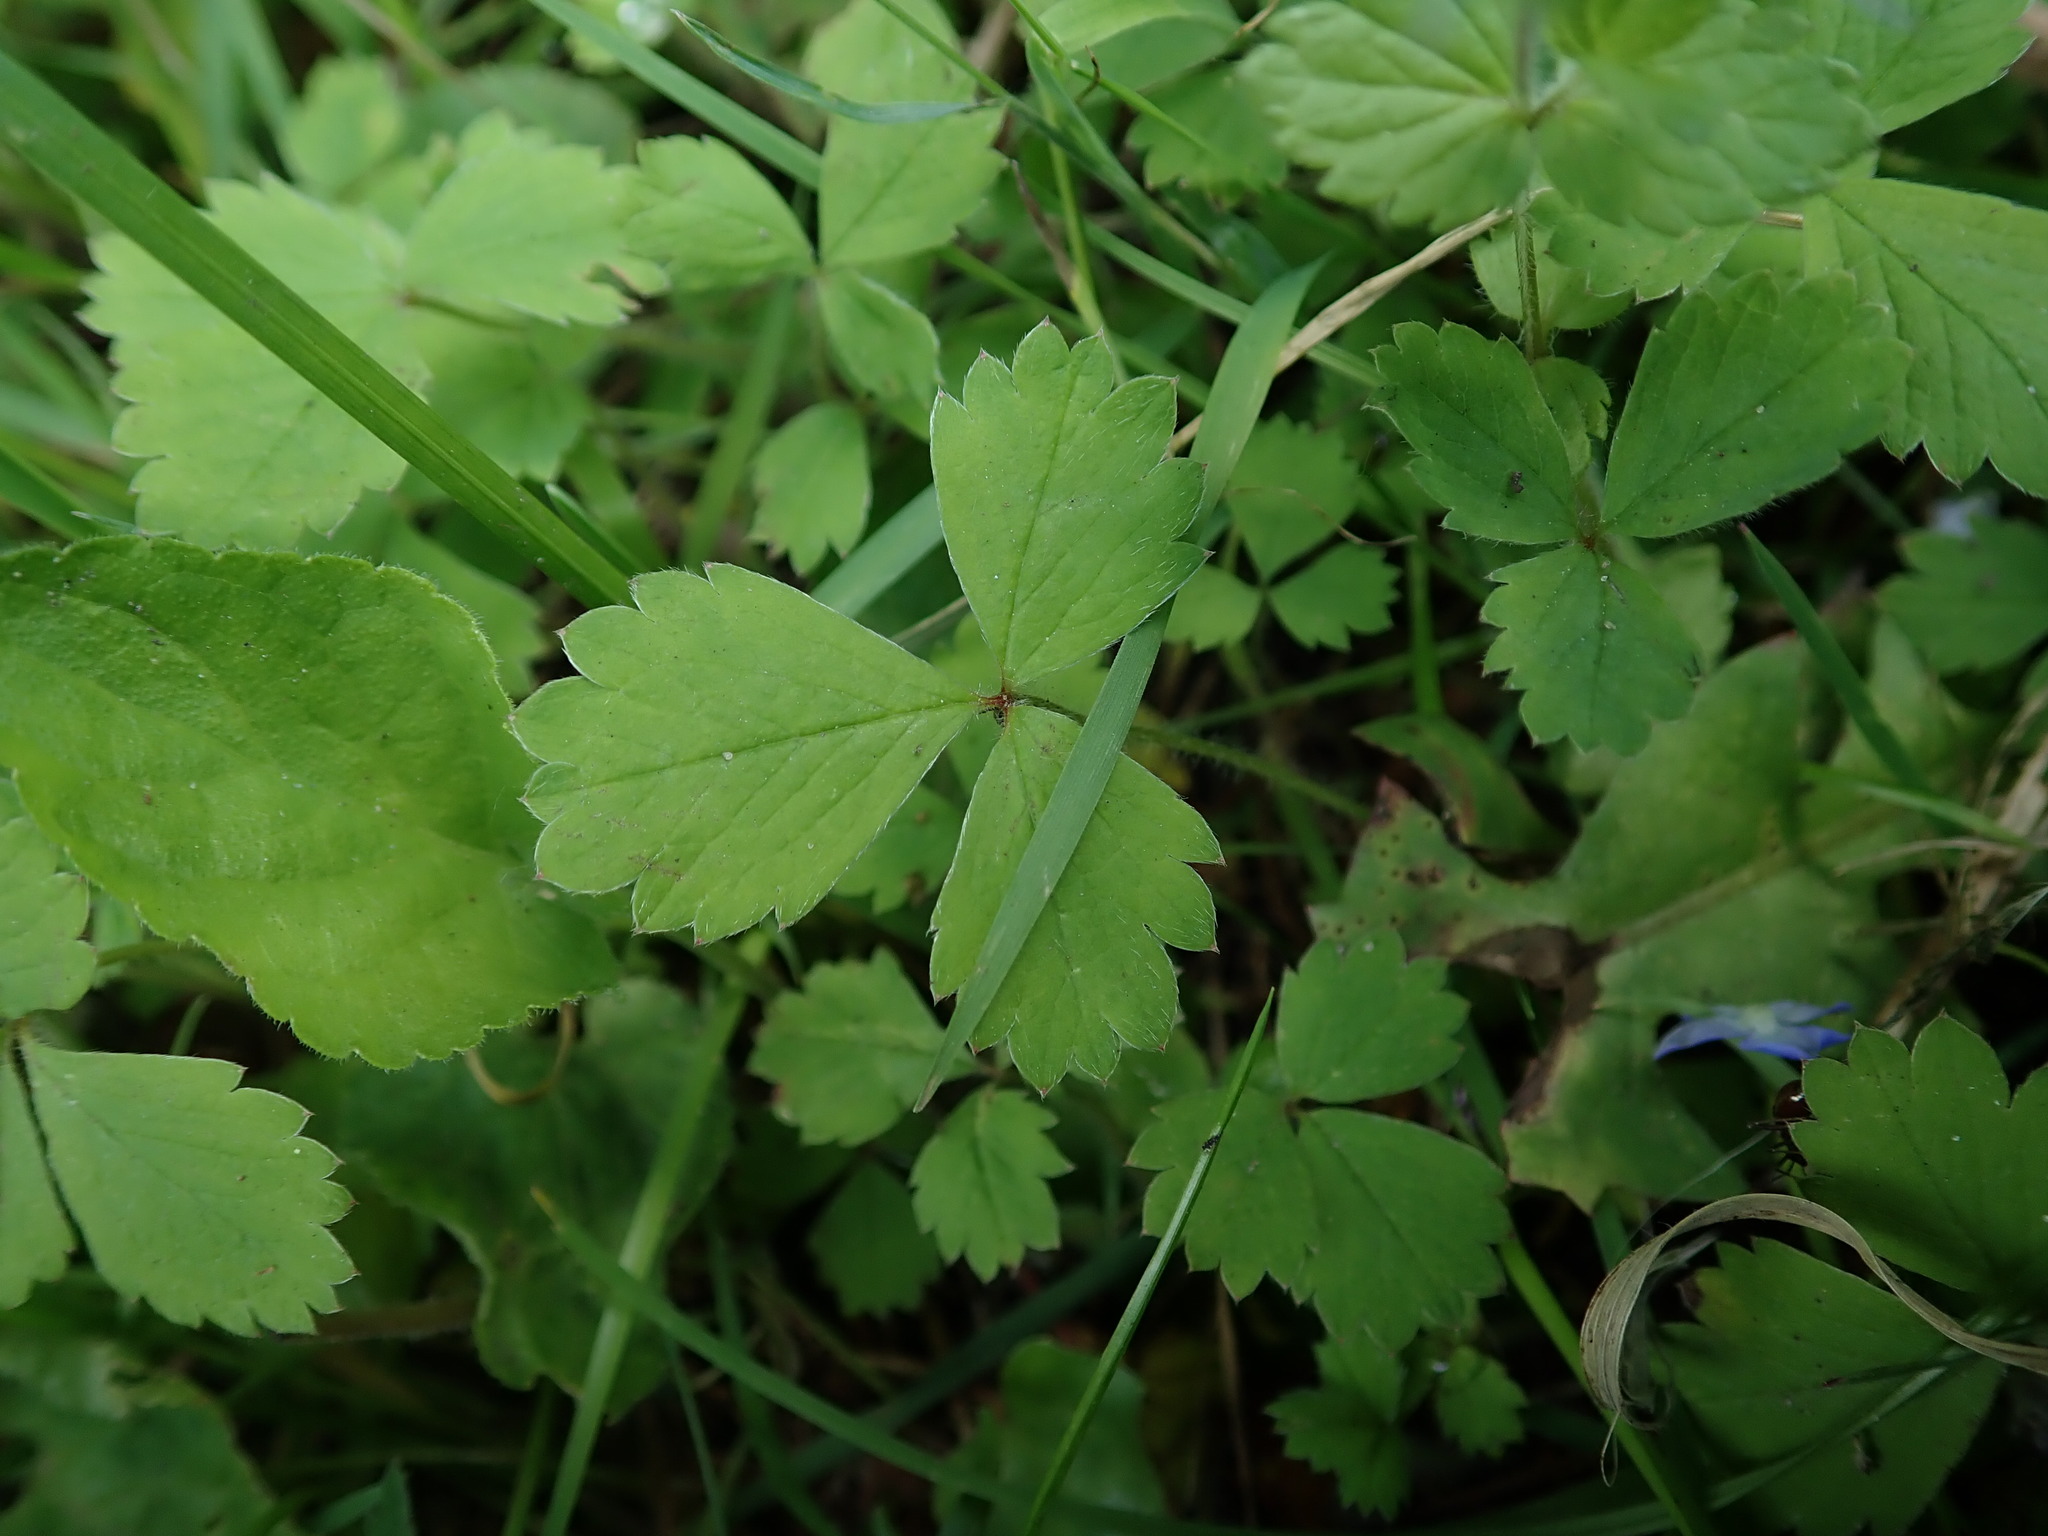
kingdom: Plantae
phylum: Tracheophyta
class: Magnoliopsida
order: Rosales
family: Rosaceae
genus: Potentilla
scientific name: Potentilla sterilis
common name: Barren strawberry
